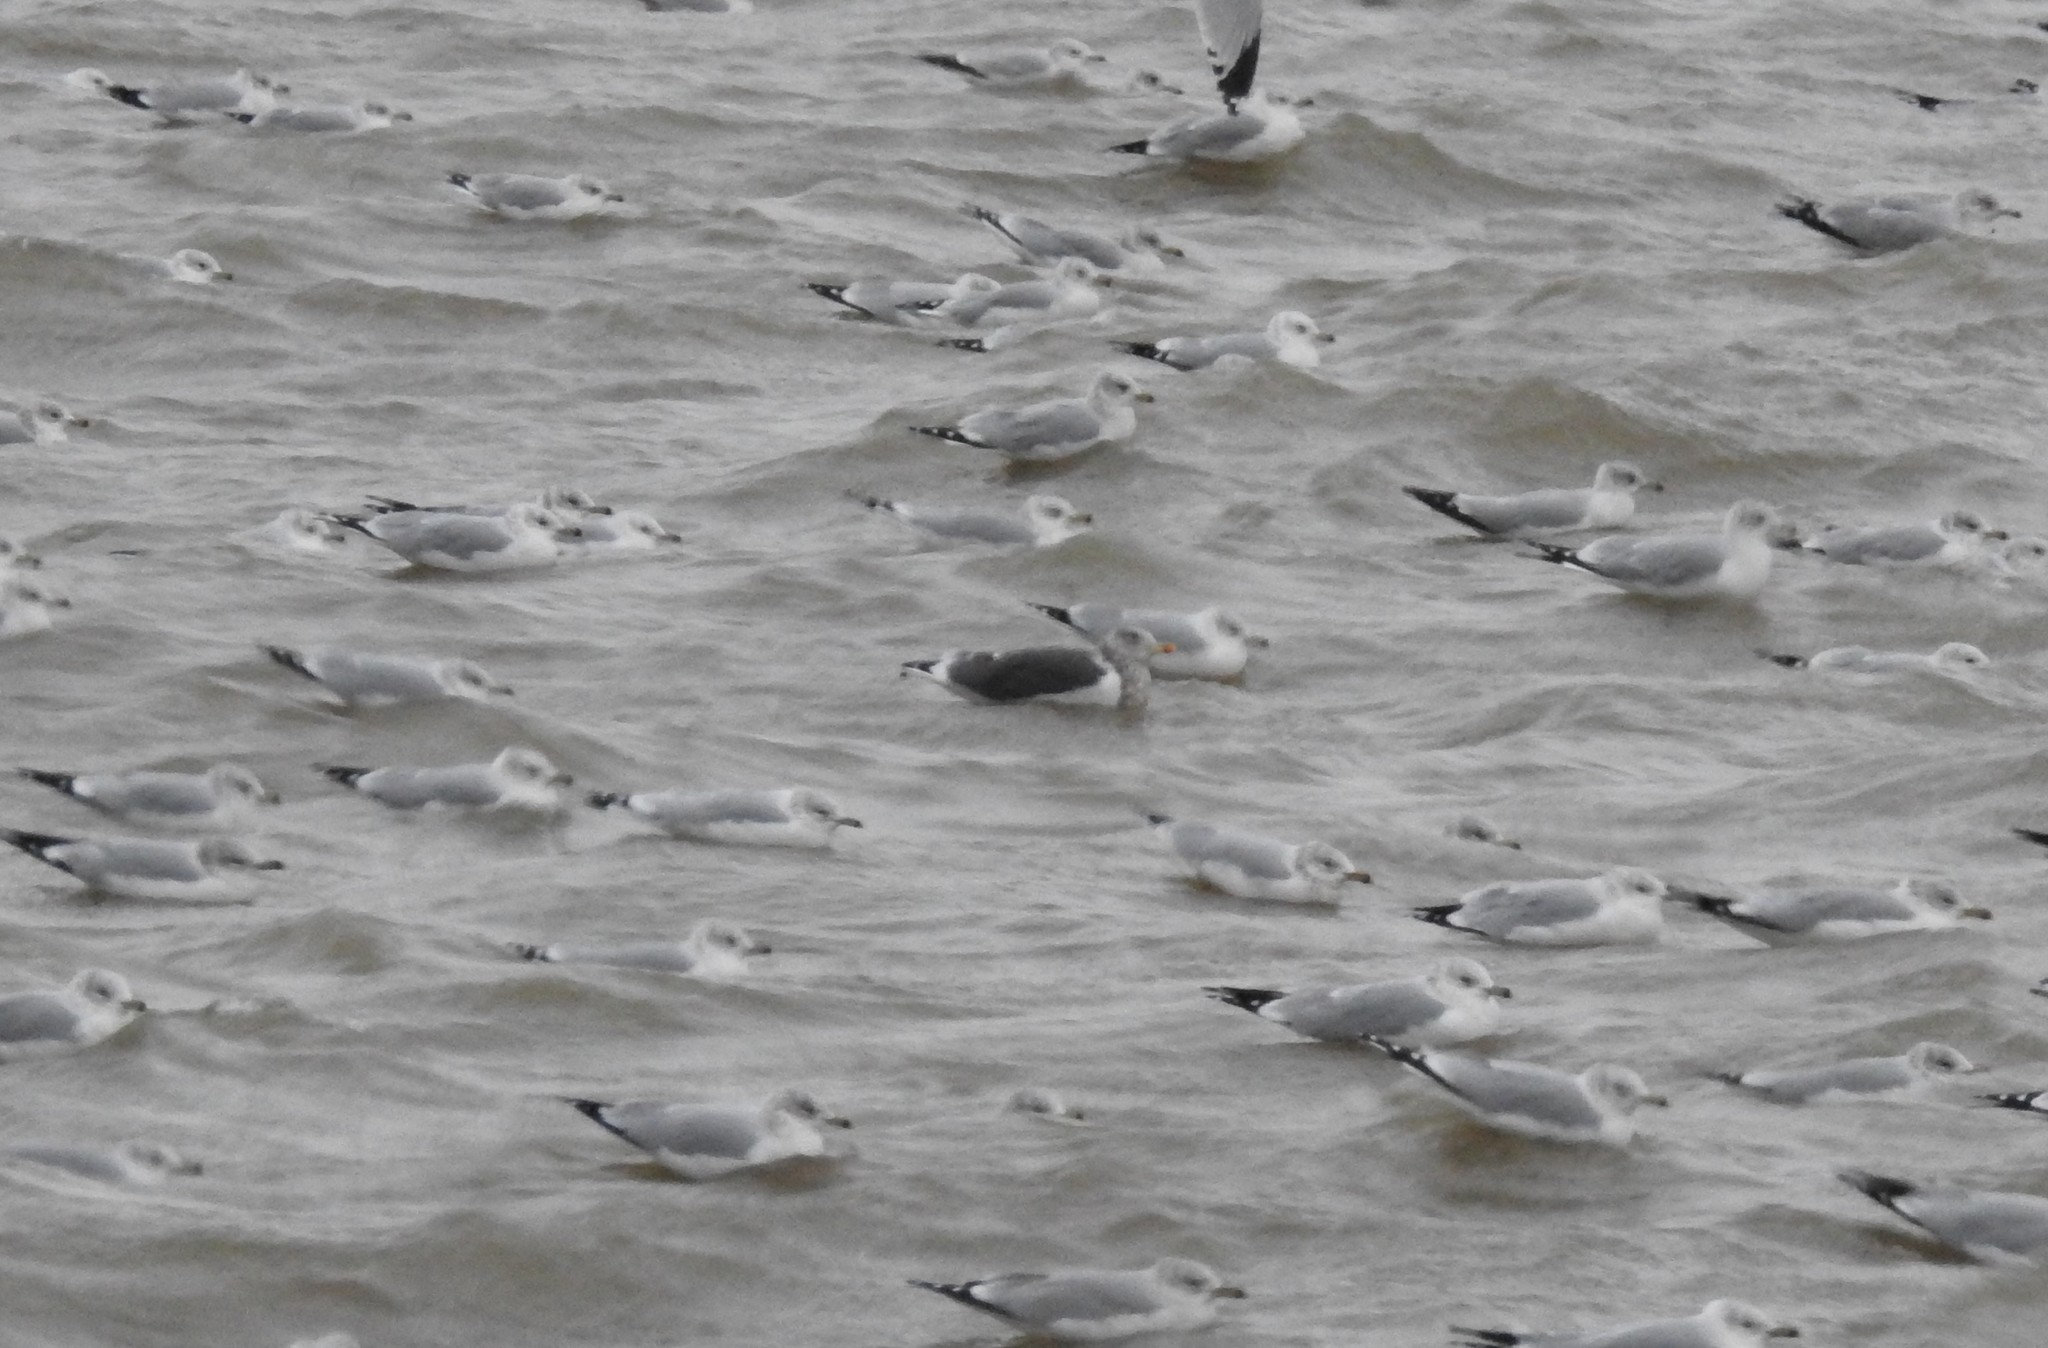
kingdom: Animalia
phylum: Chordata
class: Aves
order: Charadriiformes
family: Laridae
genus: Larus
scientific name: Larus fuscus
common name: Lesser black-backed gull
